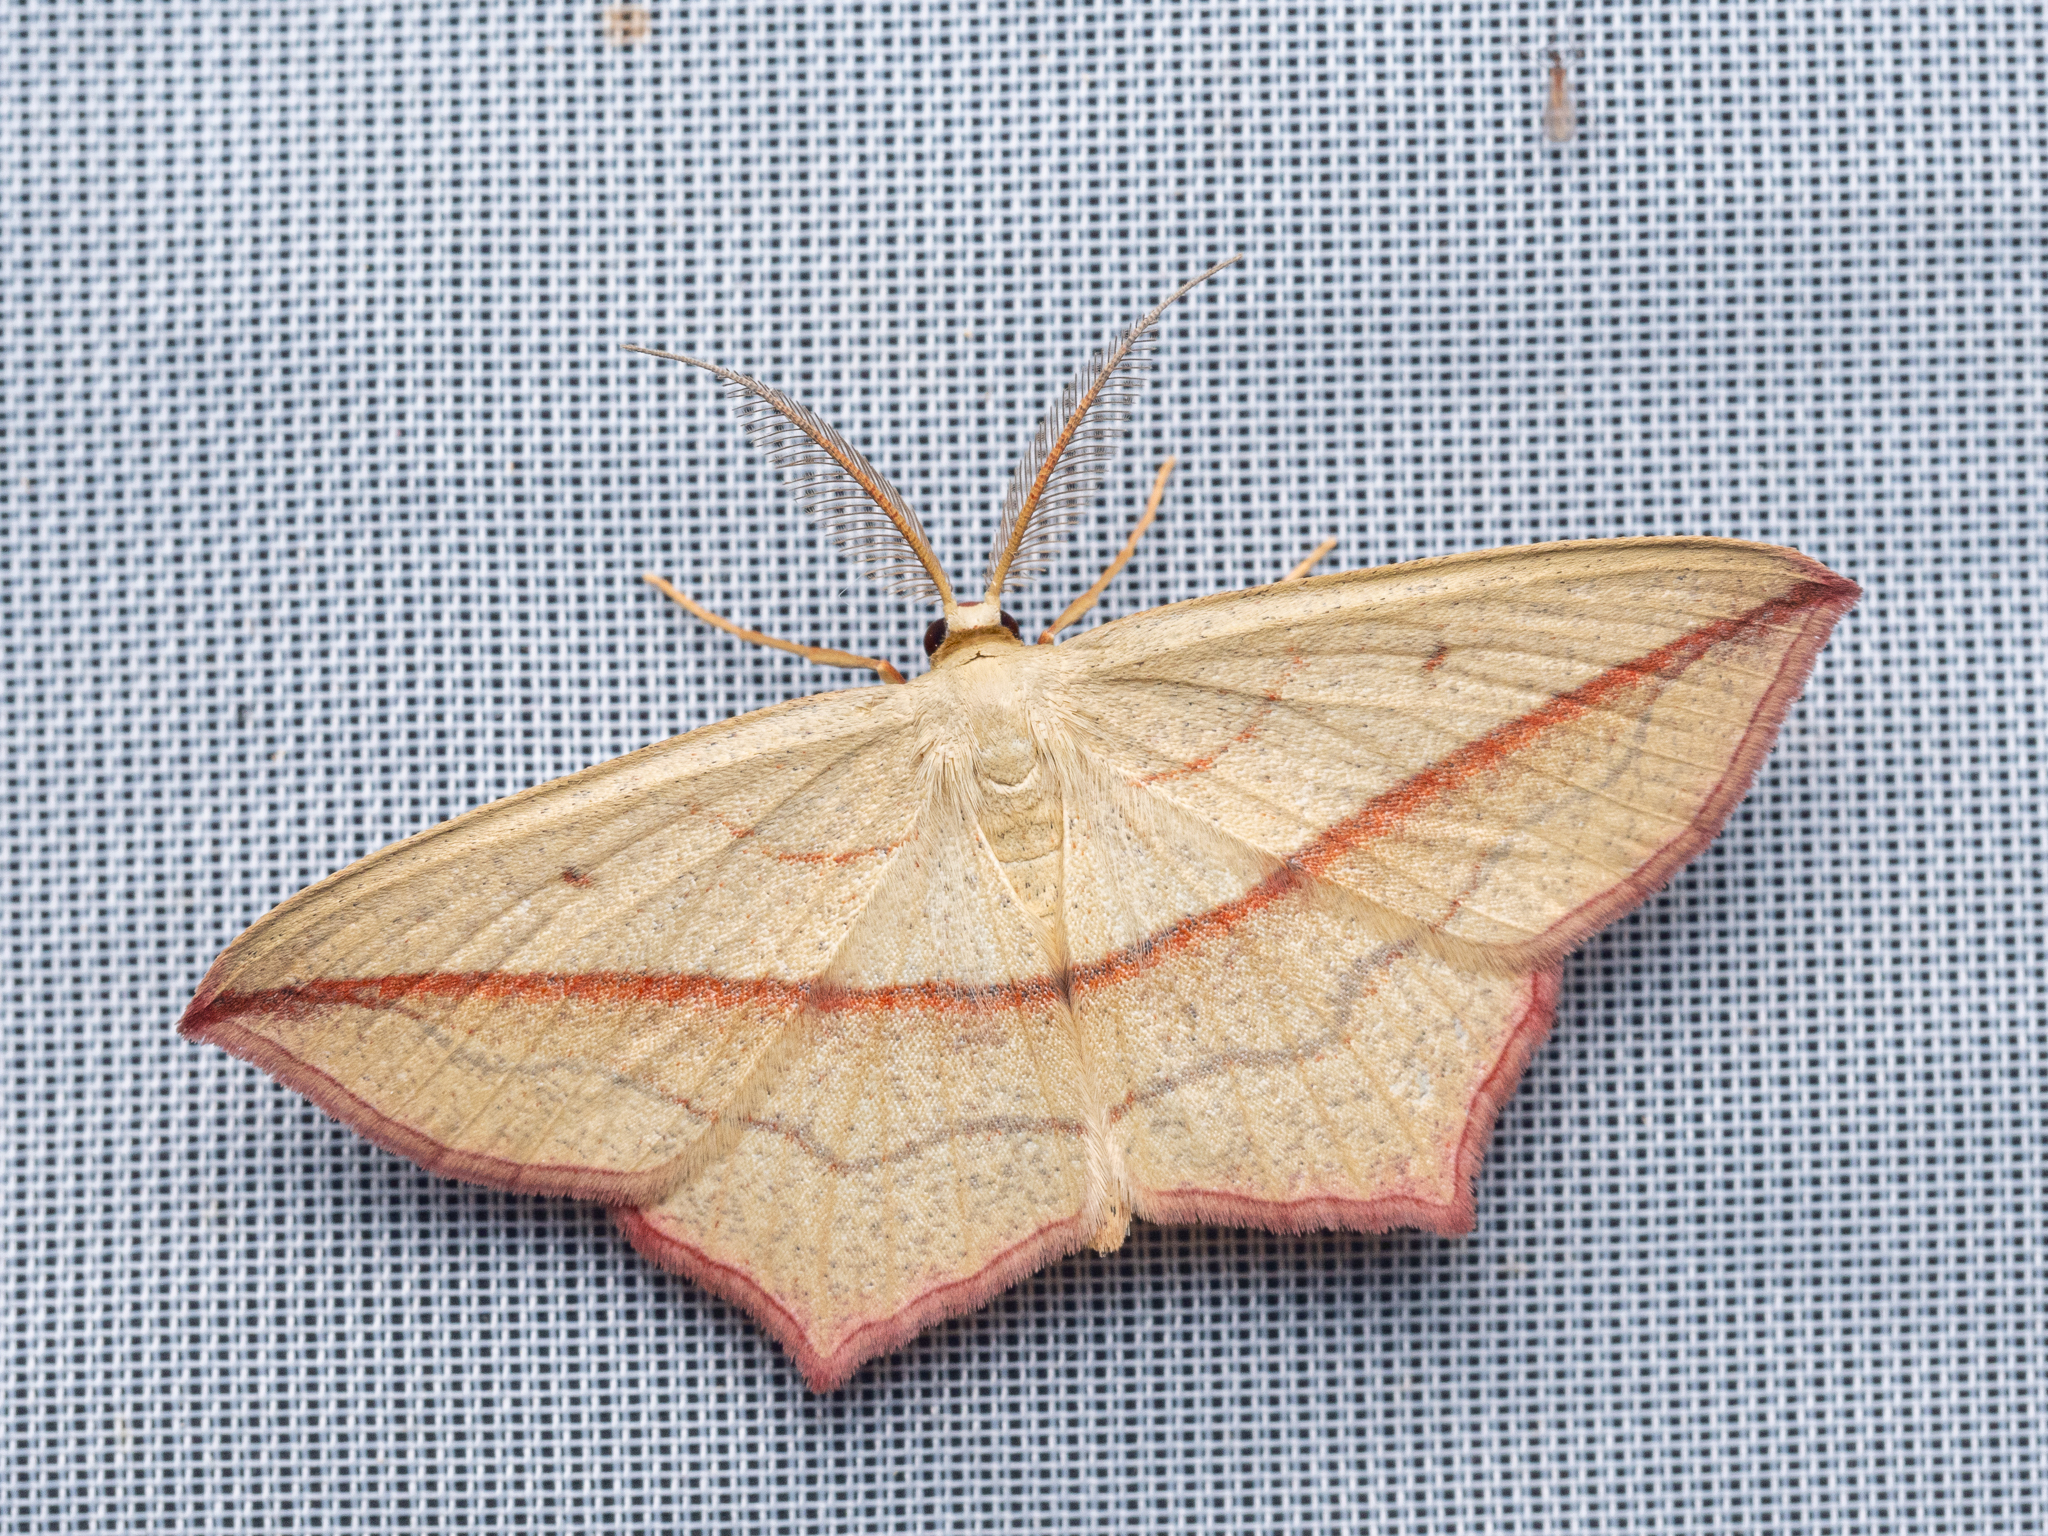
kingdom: Animalia
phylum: Arthropoda
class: Insecta
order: Lepidoptera
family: Geometridae
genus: Timandra
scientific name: Timandra comae
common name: Blood-vein
